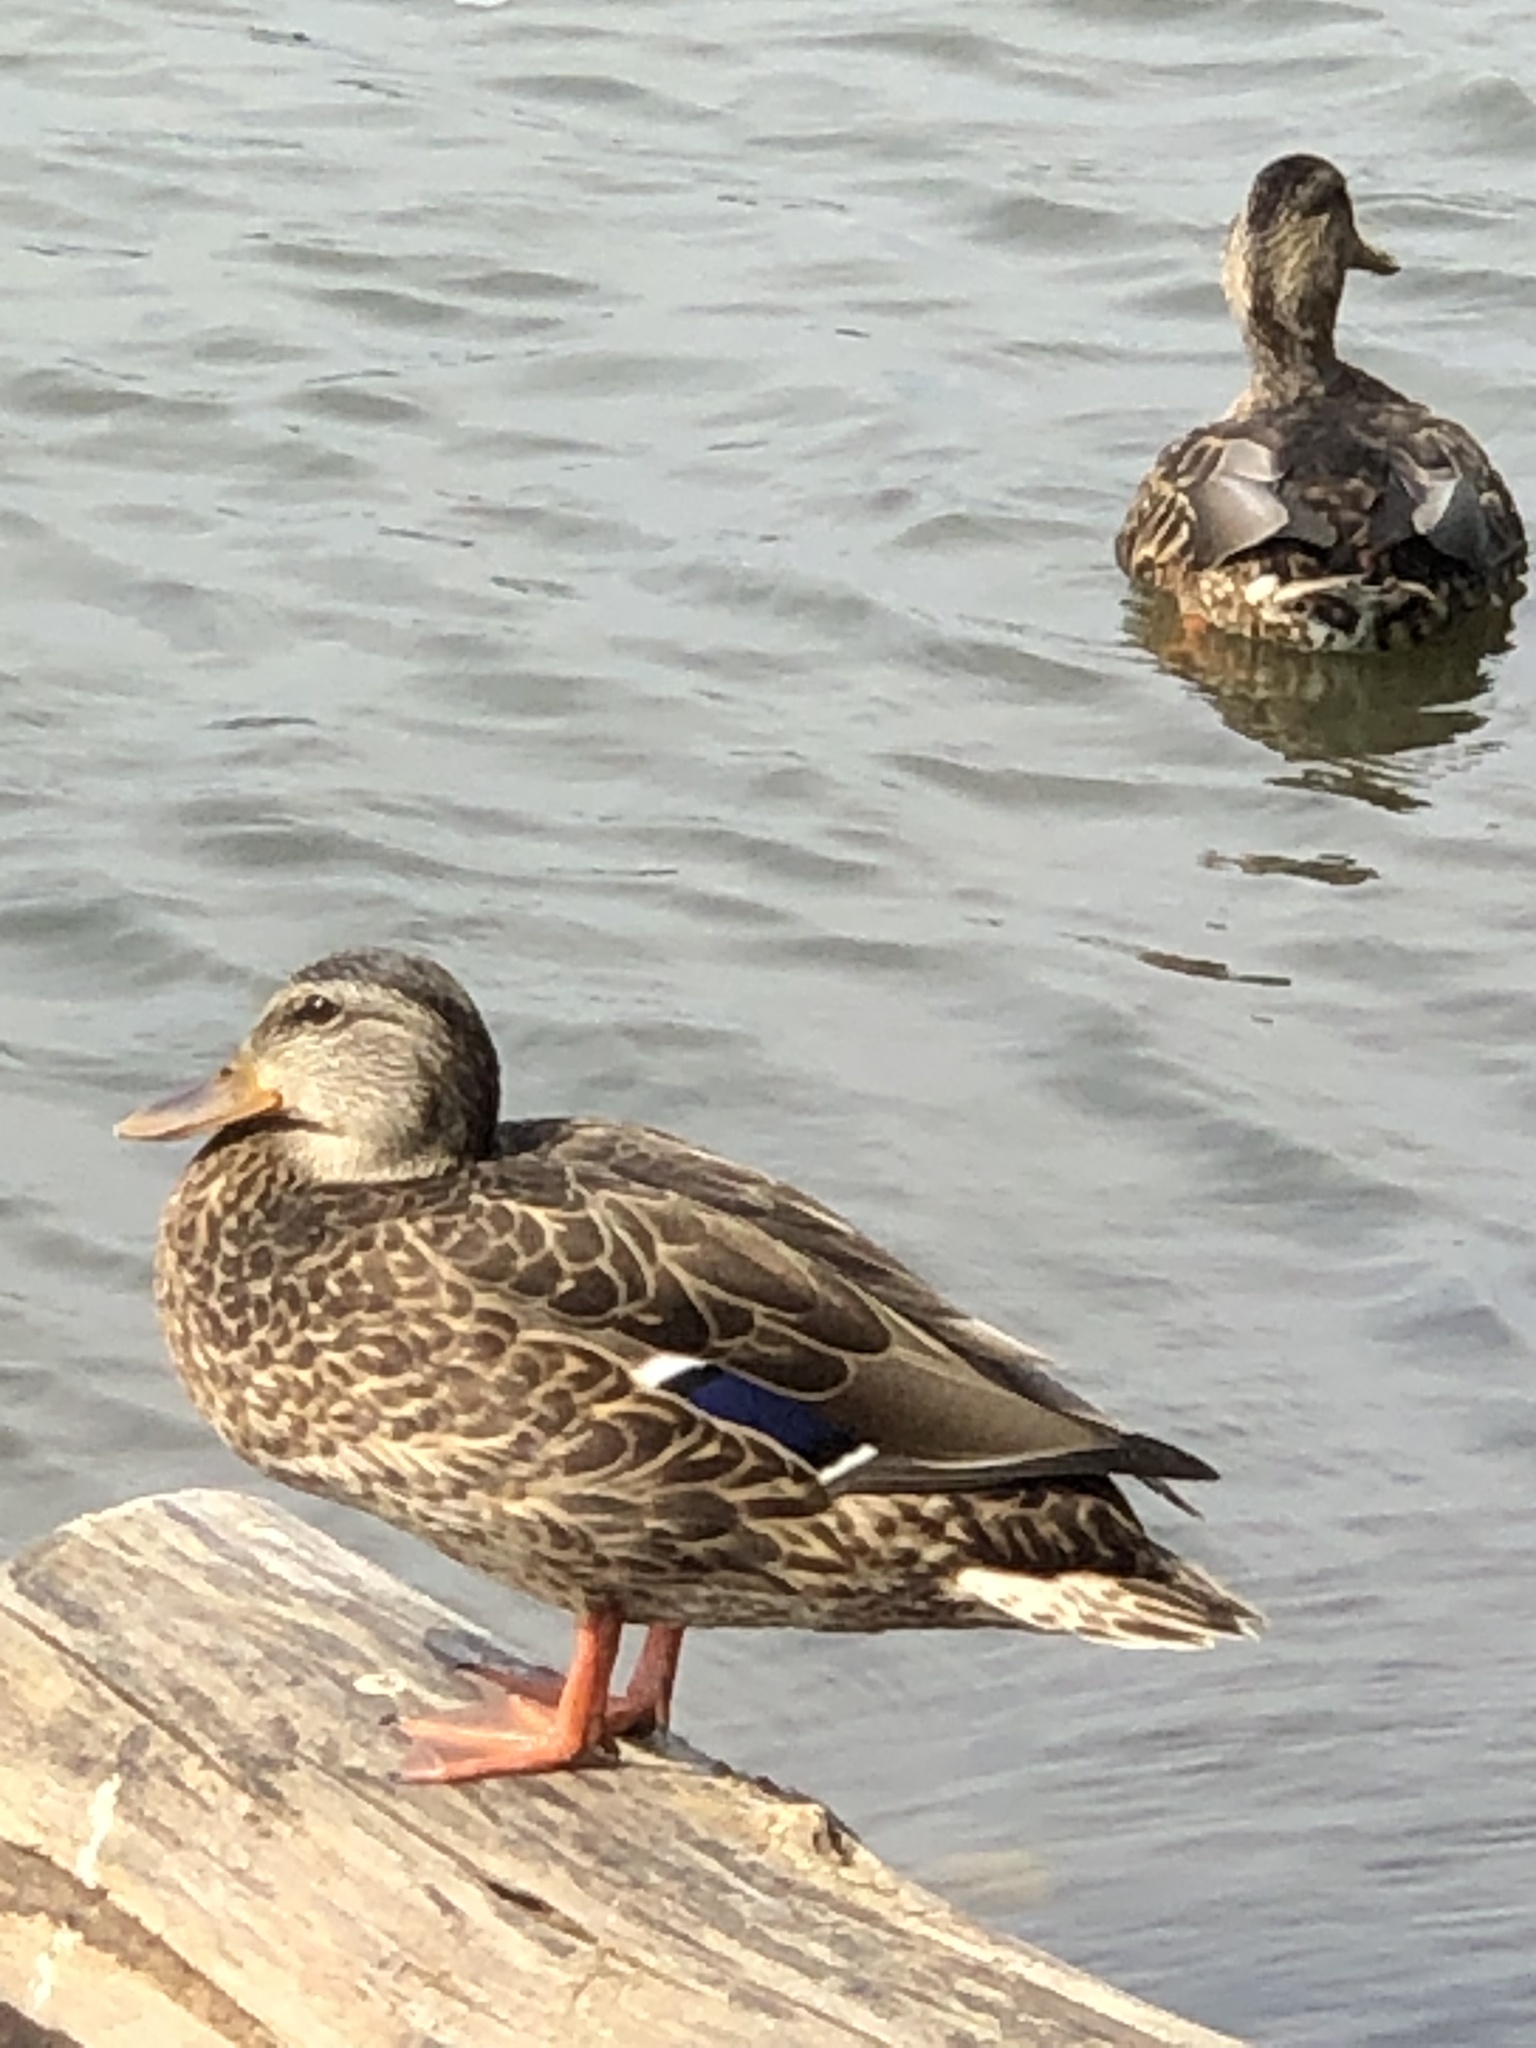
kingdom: Animalia
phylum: Chordata
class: Aves
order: Anseriformes
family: Anatidae
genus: Anas
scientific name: Anas platyrhynchos
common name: Mallard
